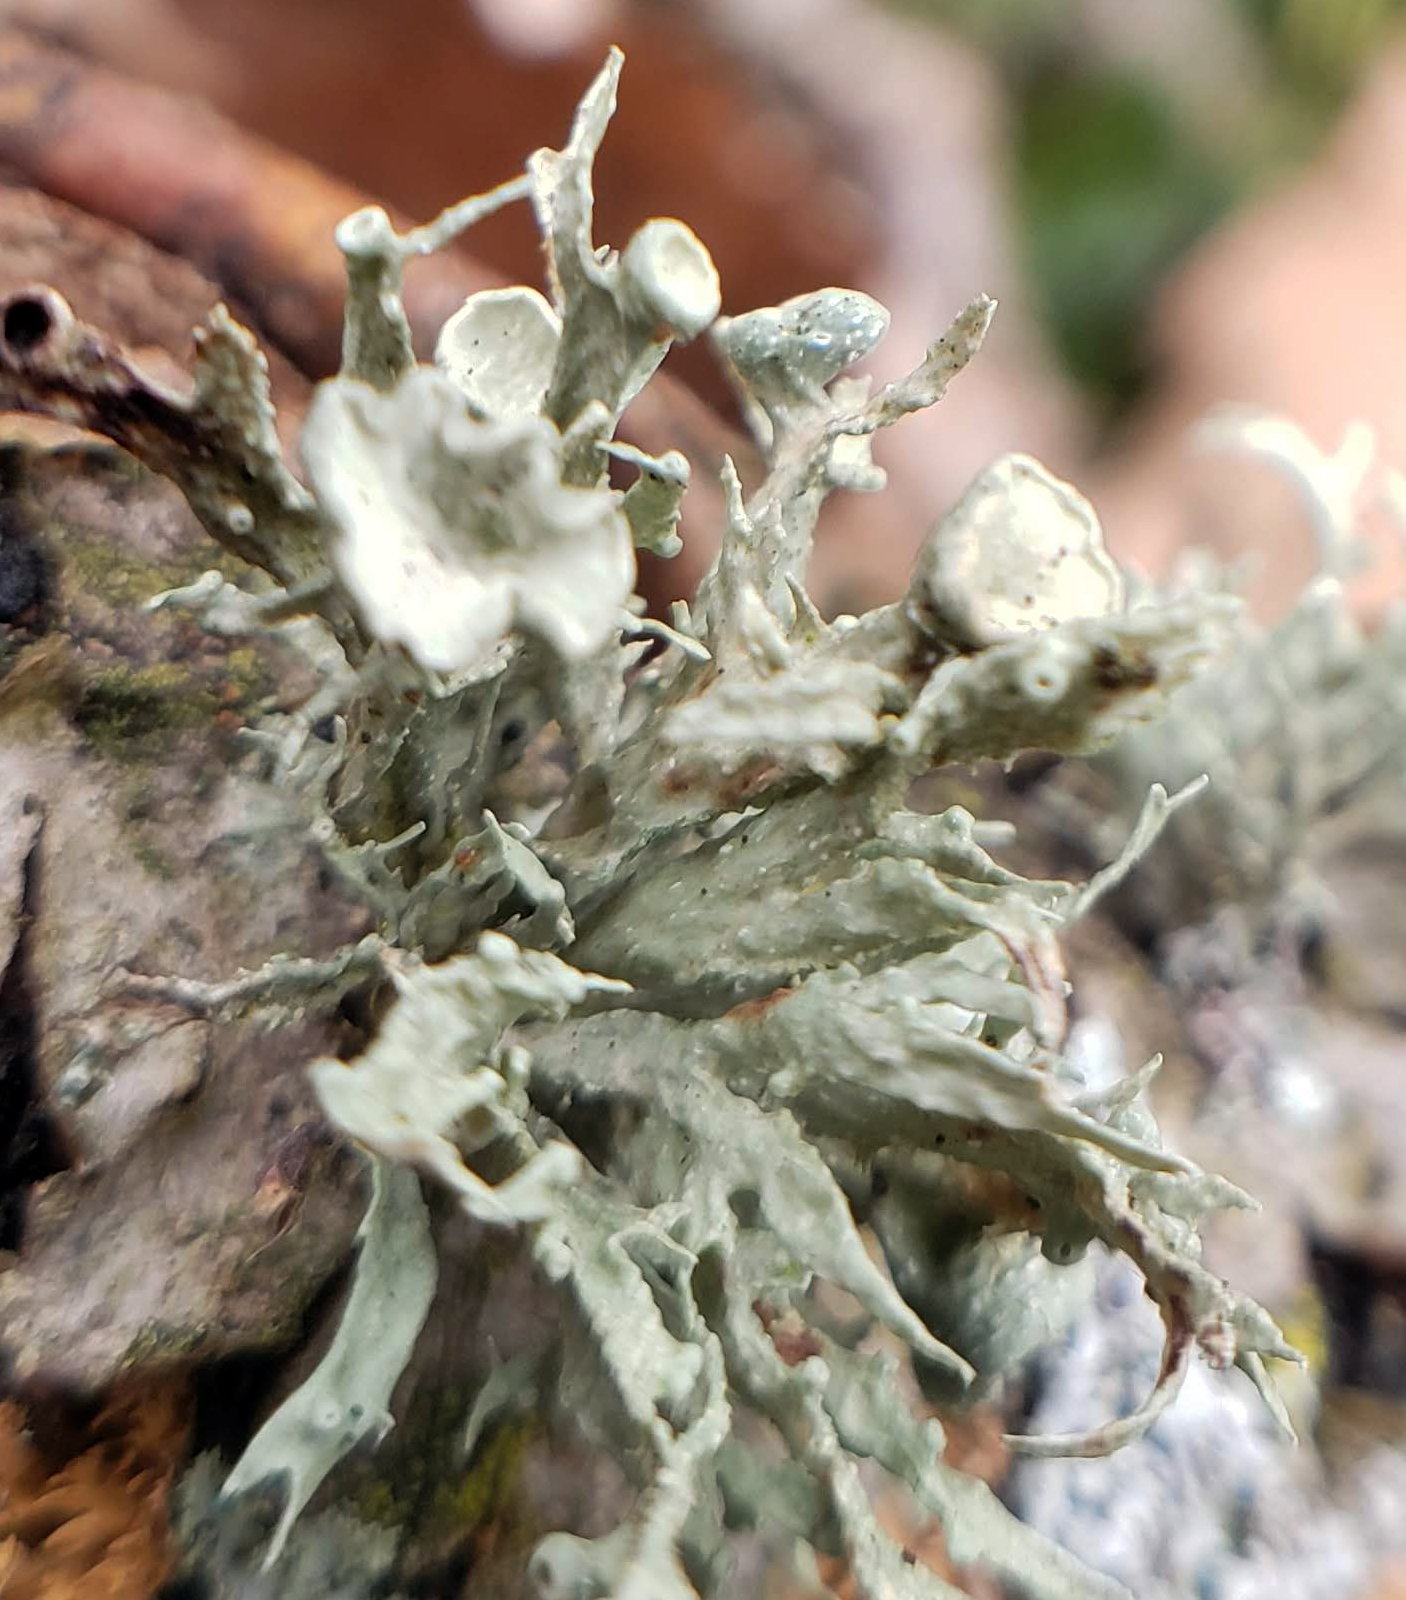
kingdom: Fungi
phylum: Ascomycota
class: Lecanoromycetes
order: Lecanorales
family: Ramalinaceae
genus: Ramalina
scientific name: Ramalina americana
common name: Sinewed bush lichen
